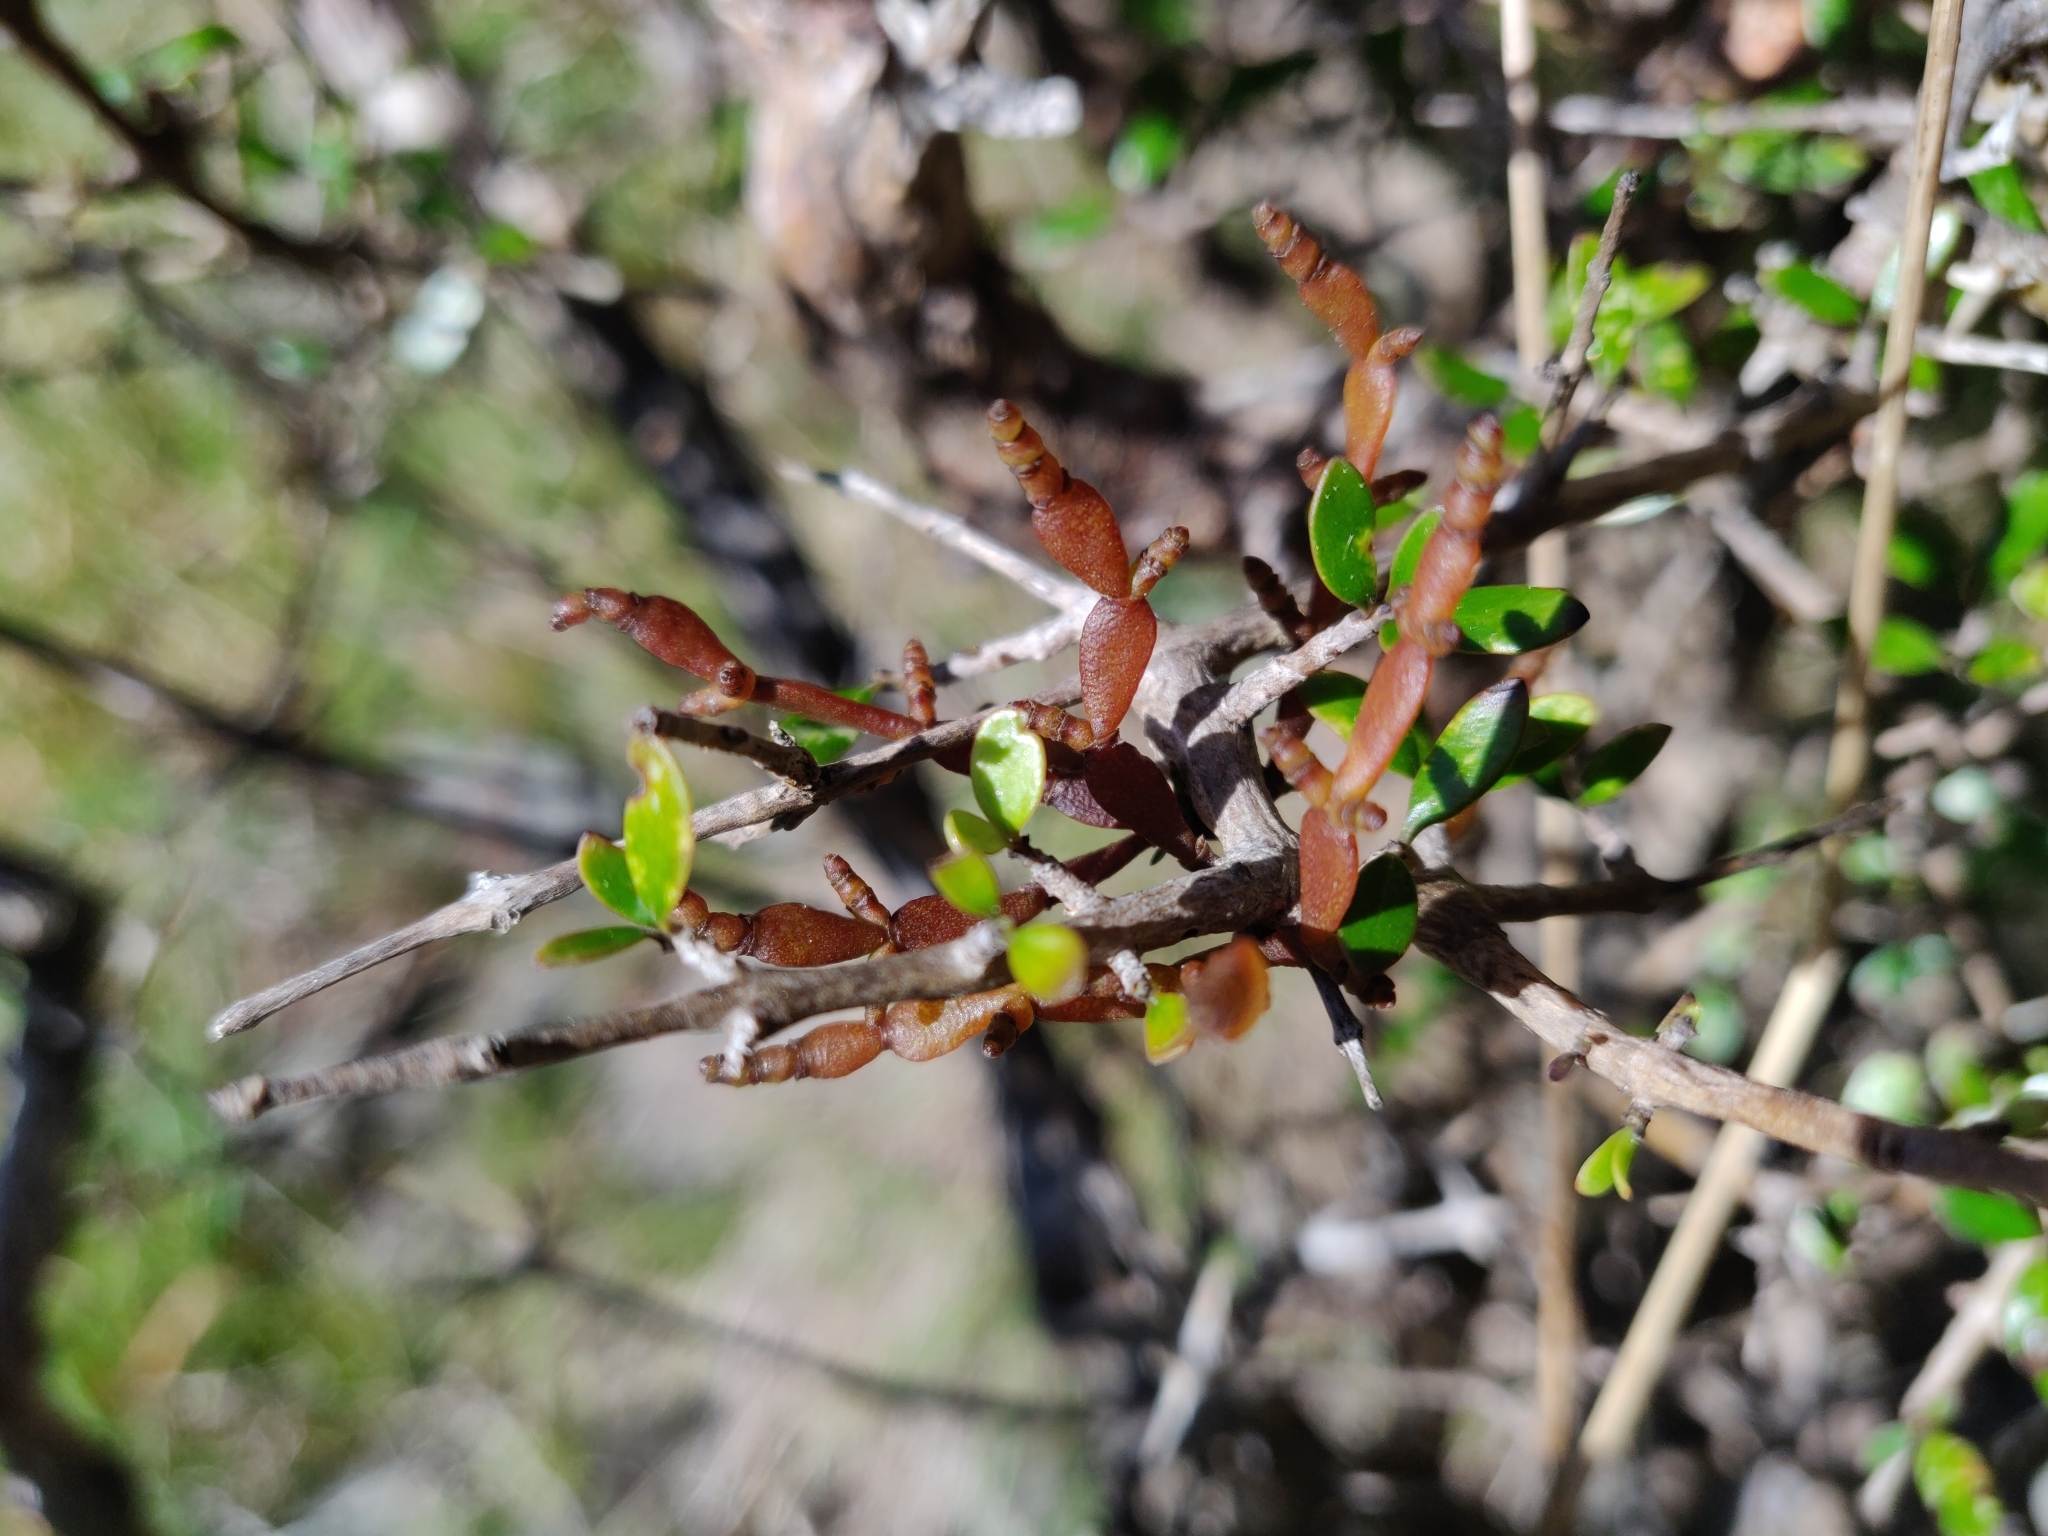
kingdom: Plantae
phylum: Tracheophyta
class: Magnoliopsida
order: Santalales
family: Viscaceae
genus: Korthalsella
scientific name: Korthalsella clavata
